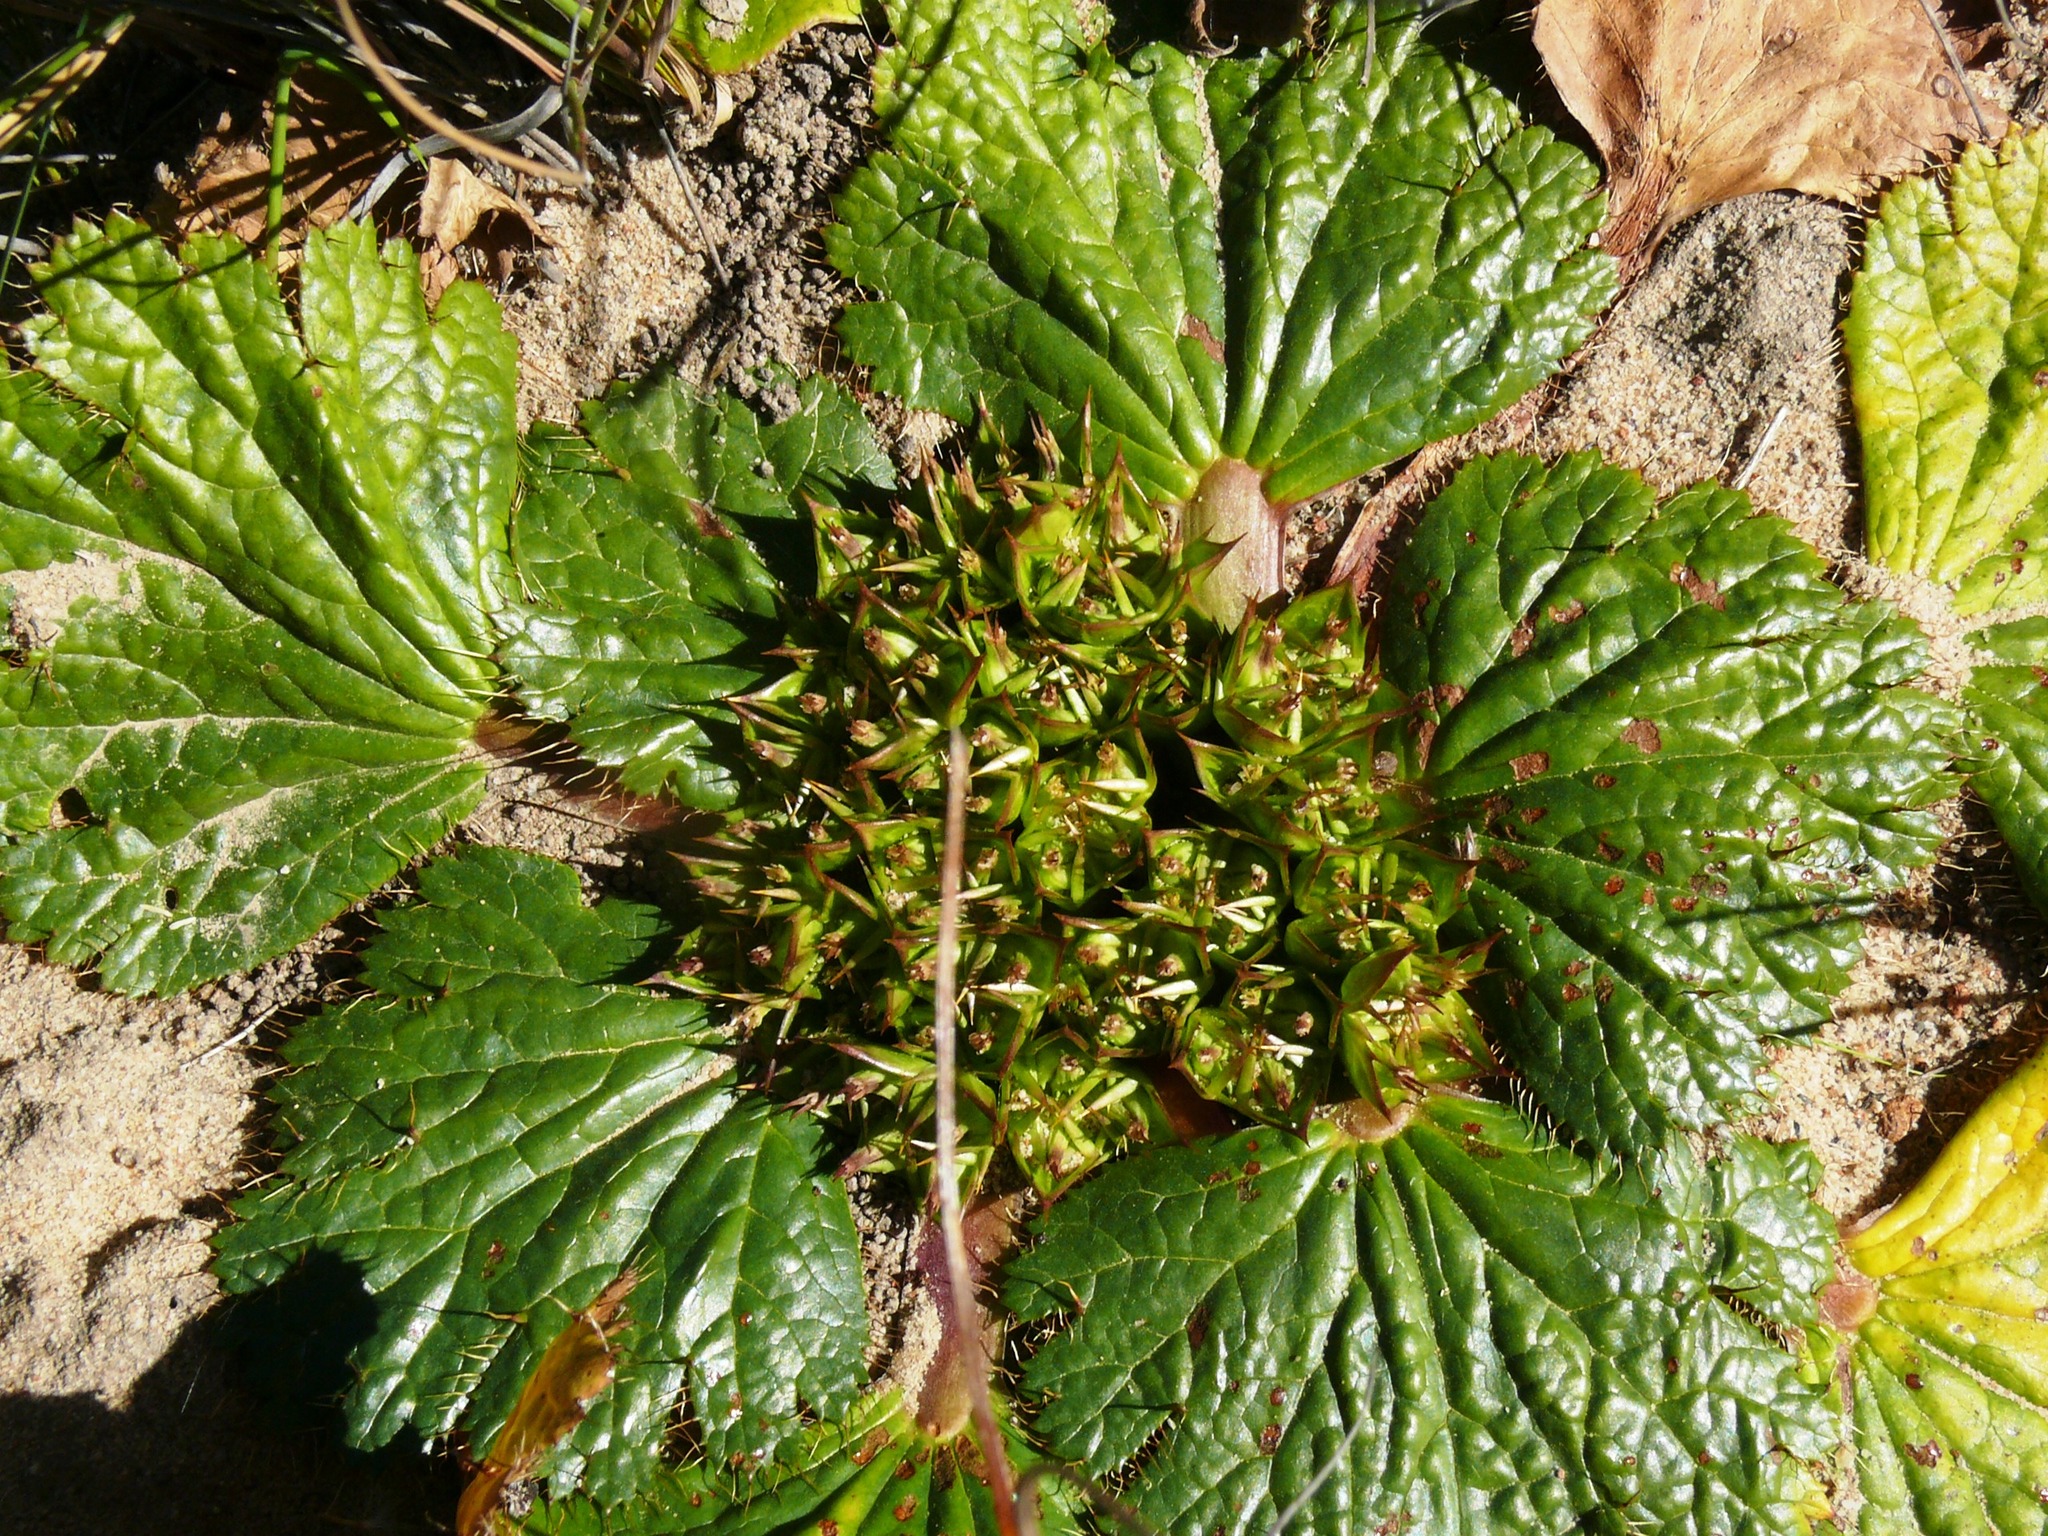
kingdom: Plantae
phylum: Tracheophyta
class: Magnoliopsida
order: Apiales
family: Apiaceae
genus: Arctopus
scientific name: Arctopus echinatus
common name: Platdoring
